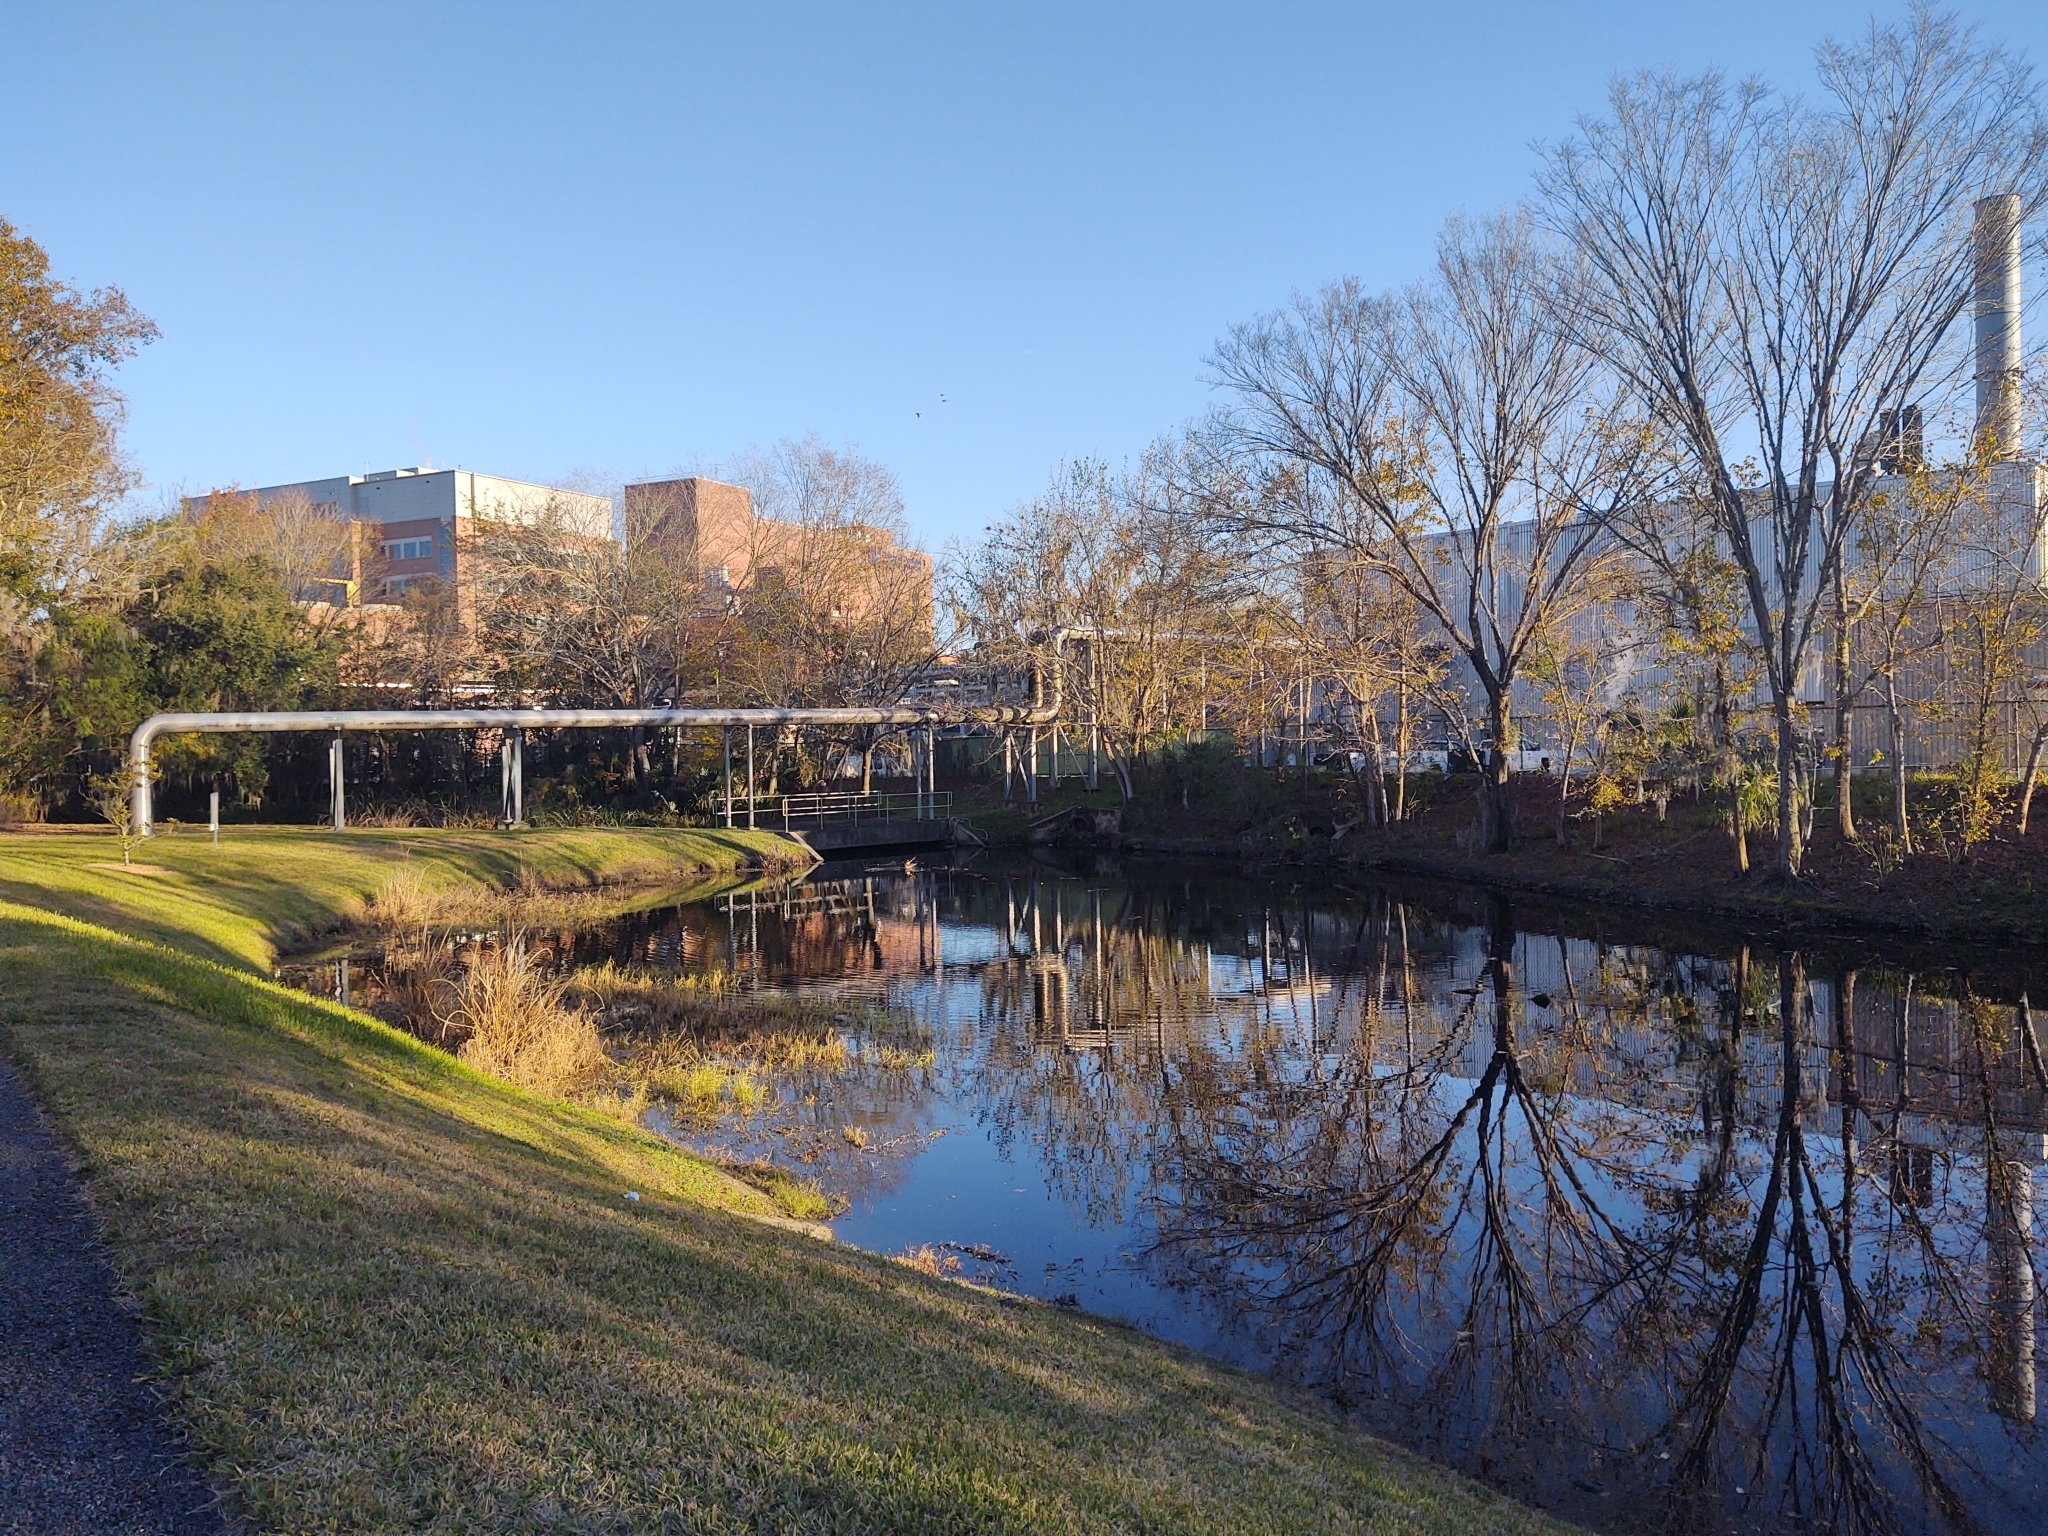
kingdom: Animalia
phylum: Chordata
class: Crocodylia
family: Alligatoridae
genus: Alligator
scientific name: Alligator mississippiensis
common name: American alligator
